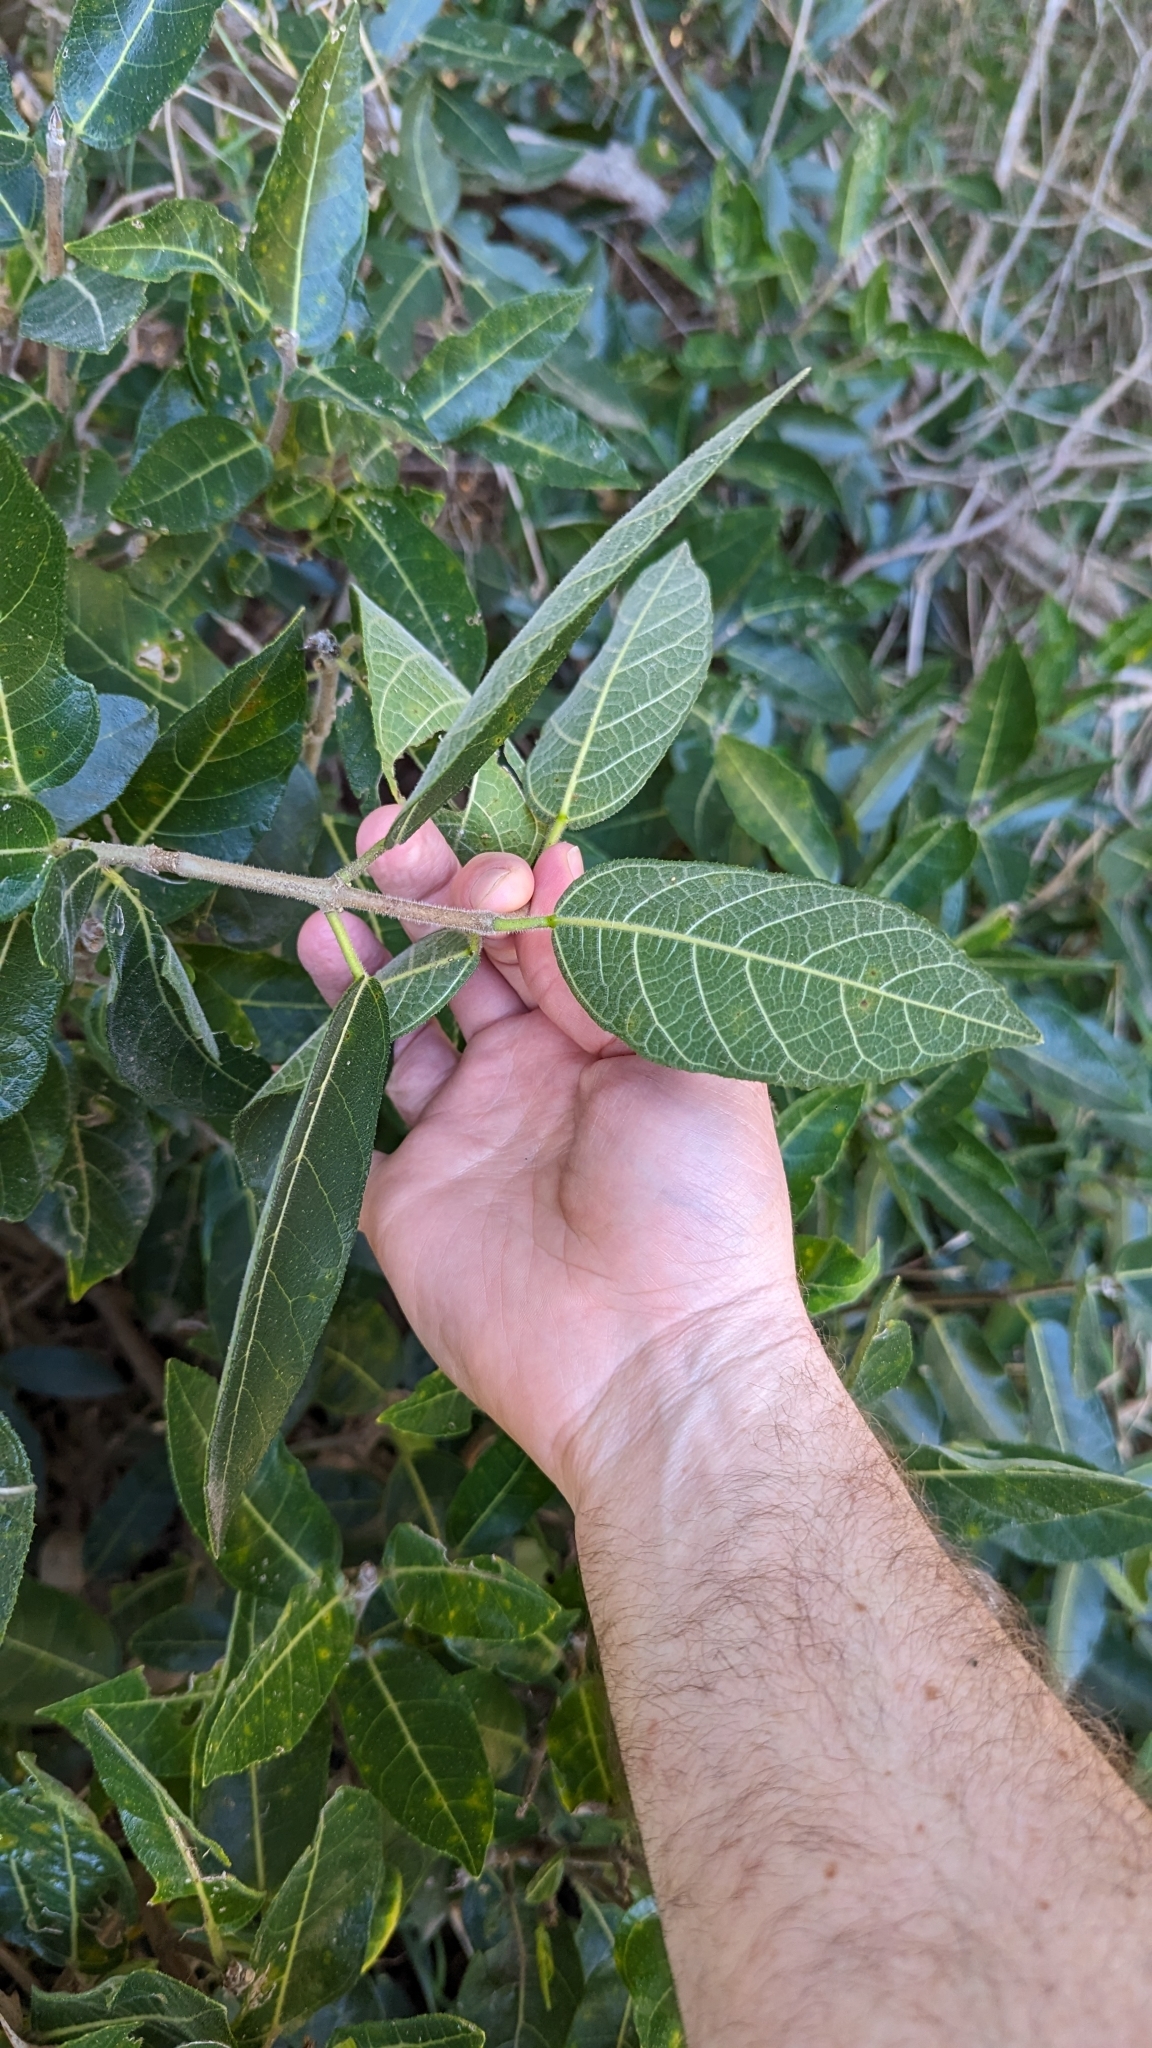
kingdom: Plantae
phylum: Tracheophyta
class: Magnoliopsida
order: Rosales
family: Moraceae
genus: Ficus
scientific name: Ficus opposita
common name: Figwood
